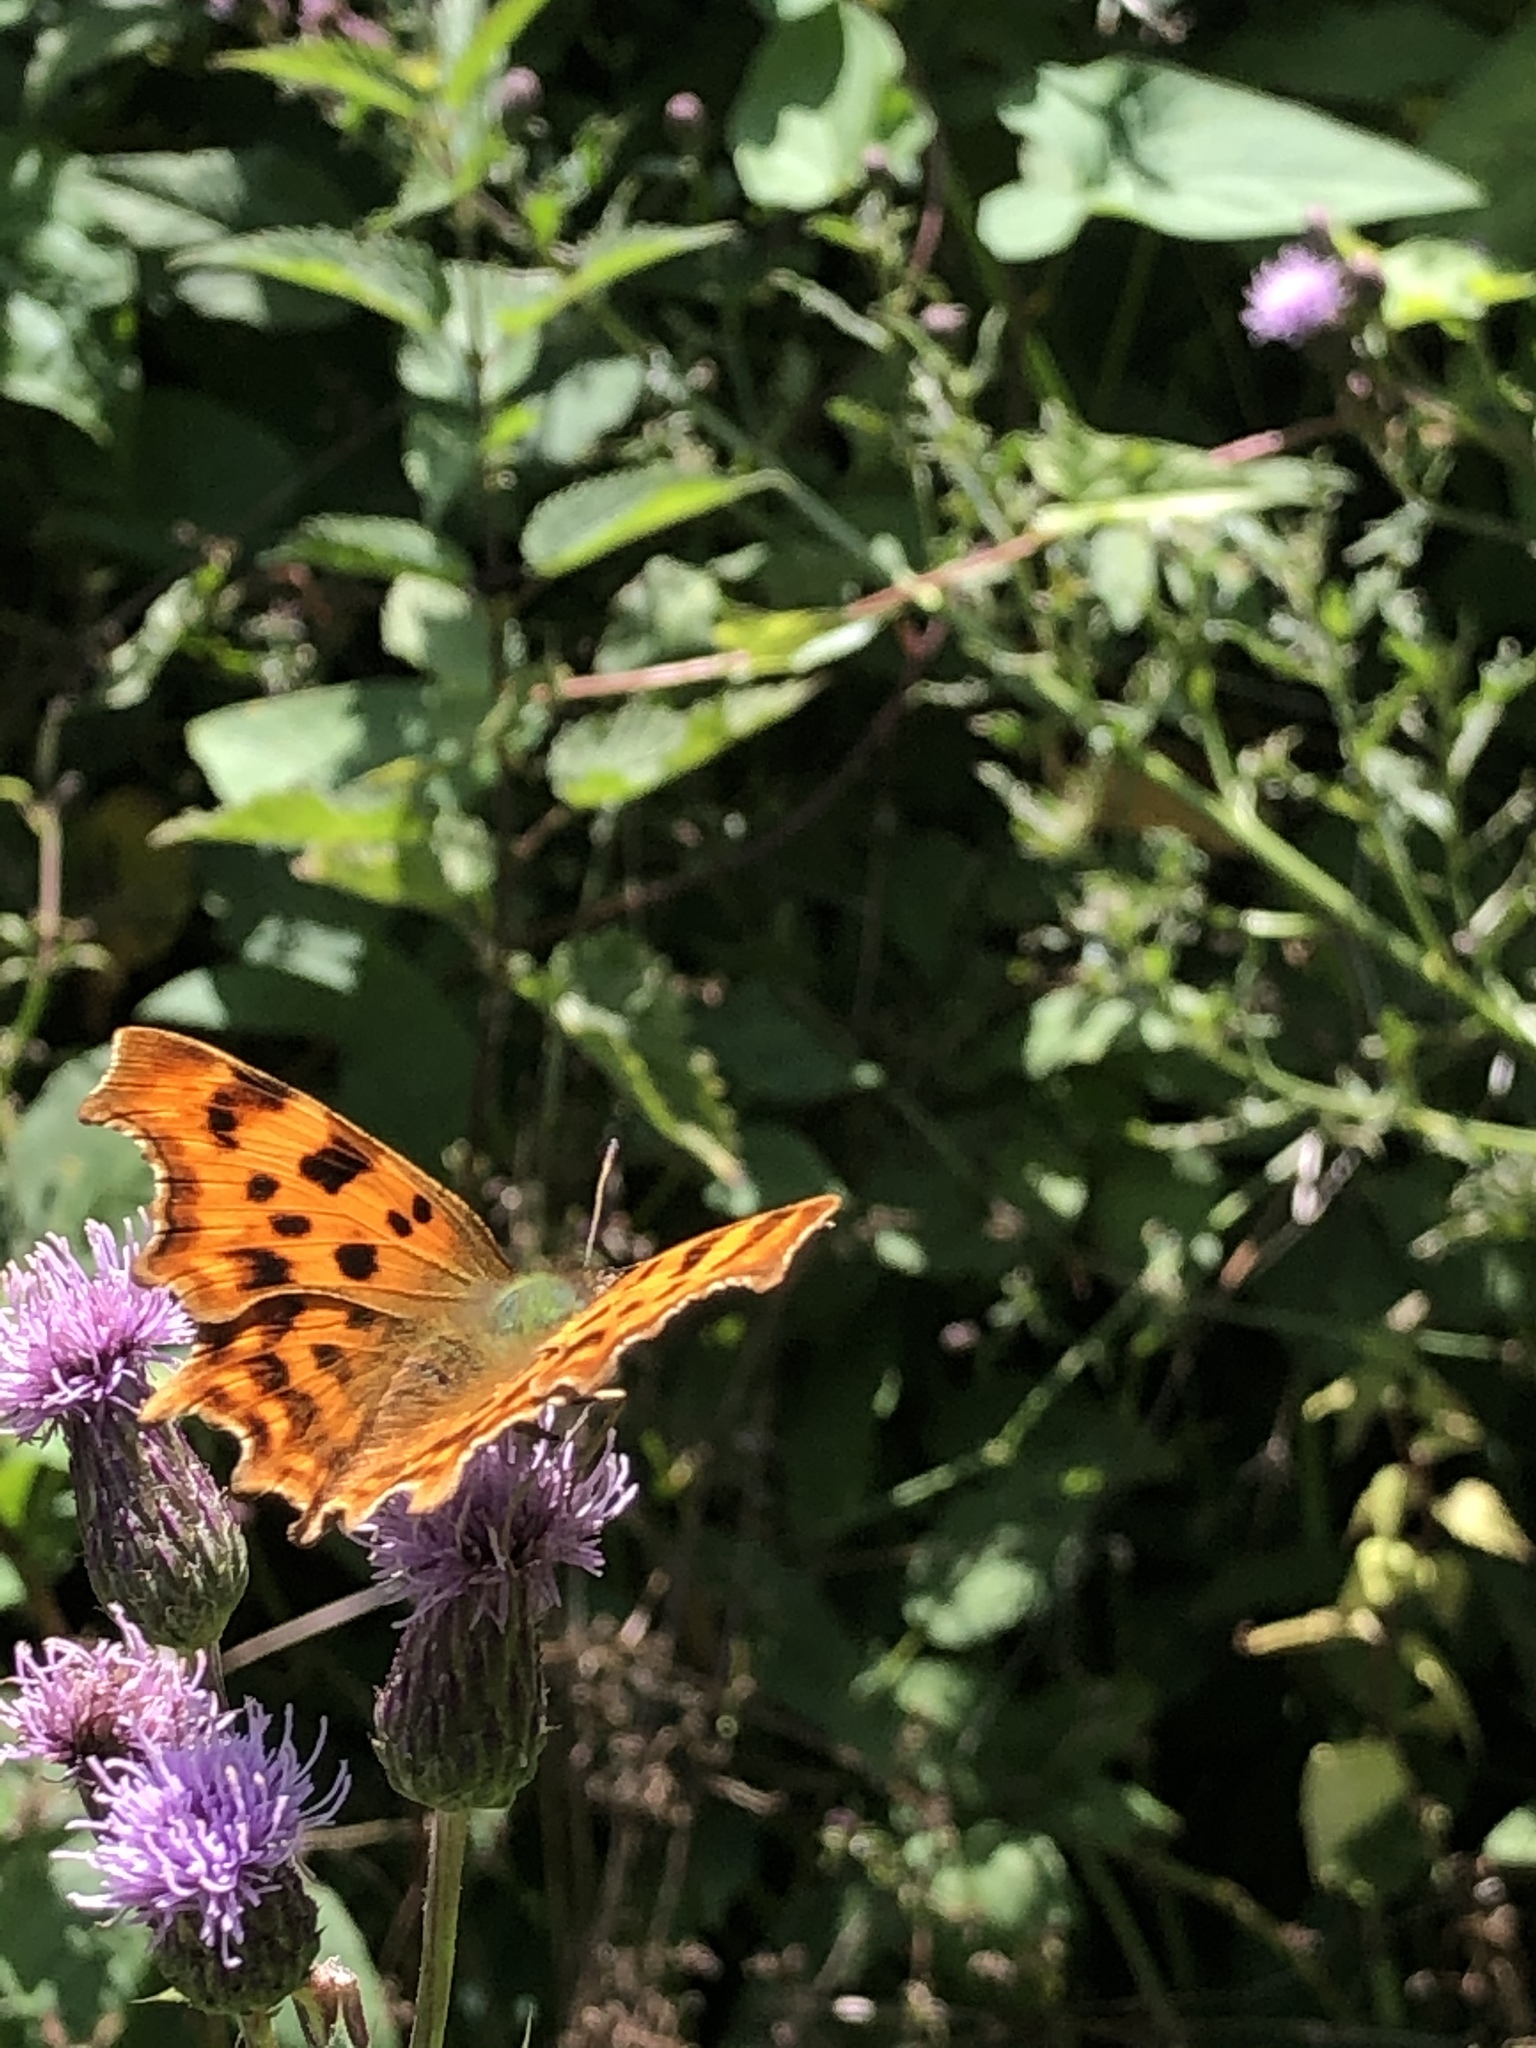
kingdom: Animalia
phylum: Arthropoda
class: Insecta
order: Lepidoptera
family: Nymphalidae
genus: Polygonia
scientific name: Polygonia c-album
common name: Comma
